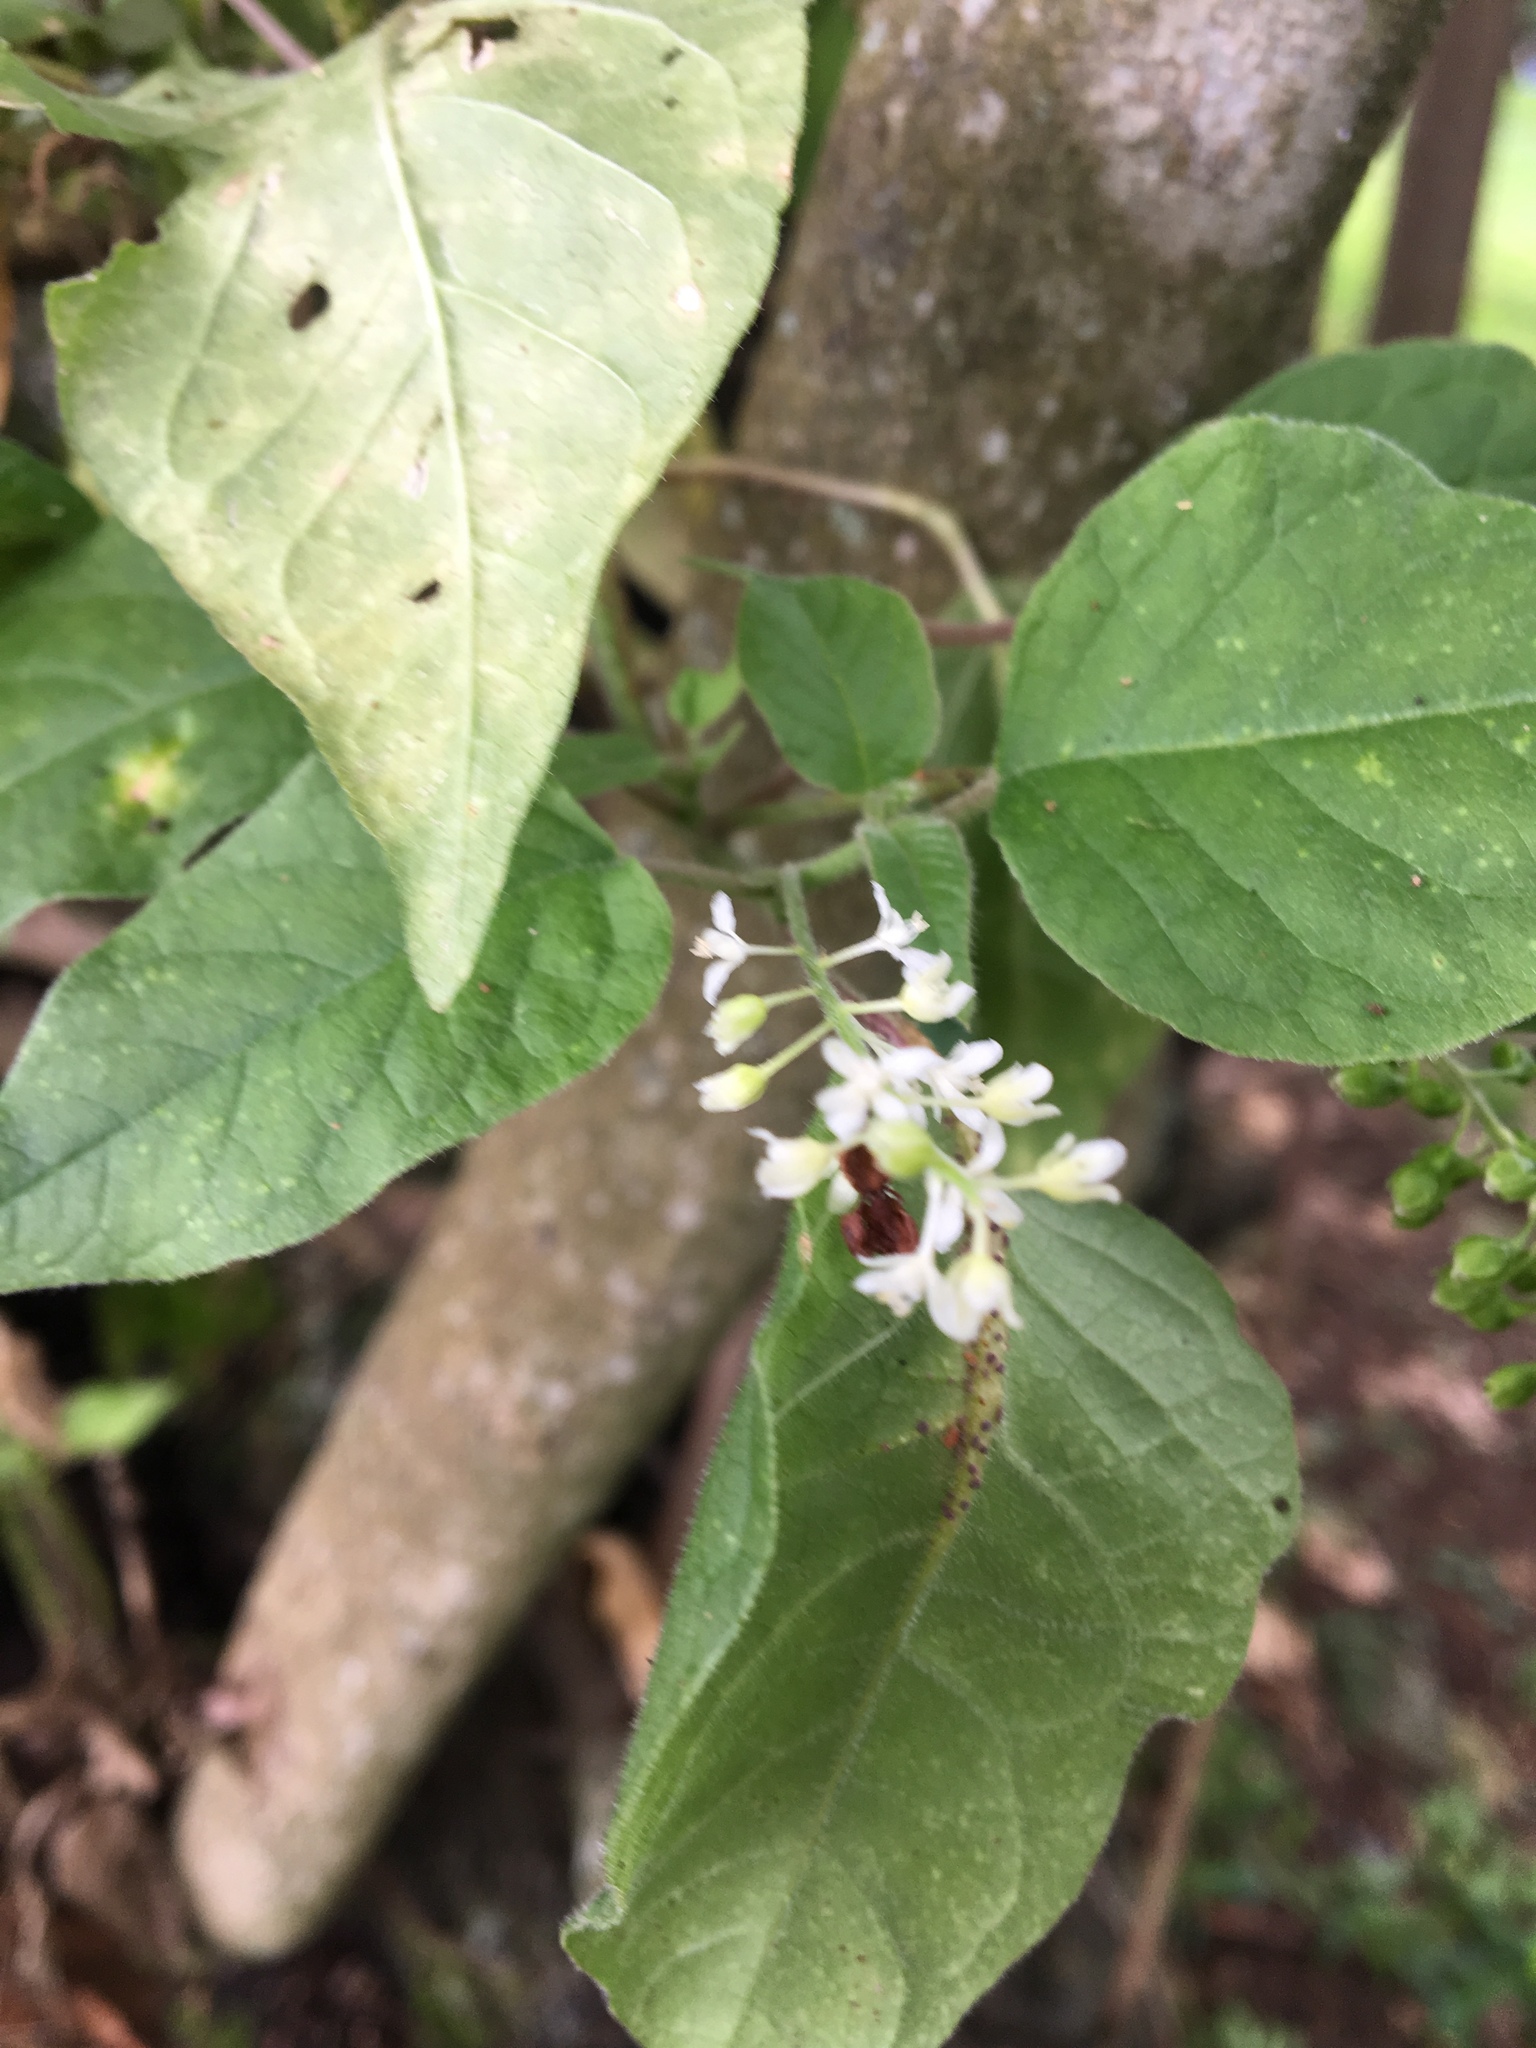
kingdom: Plantae
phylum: Tracheophyta
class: Magnoliopsida
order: Caryophyllales
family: Phytolaccaceae
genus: Rivina
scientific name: Rivina humilis
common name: Rougeplant
